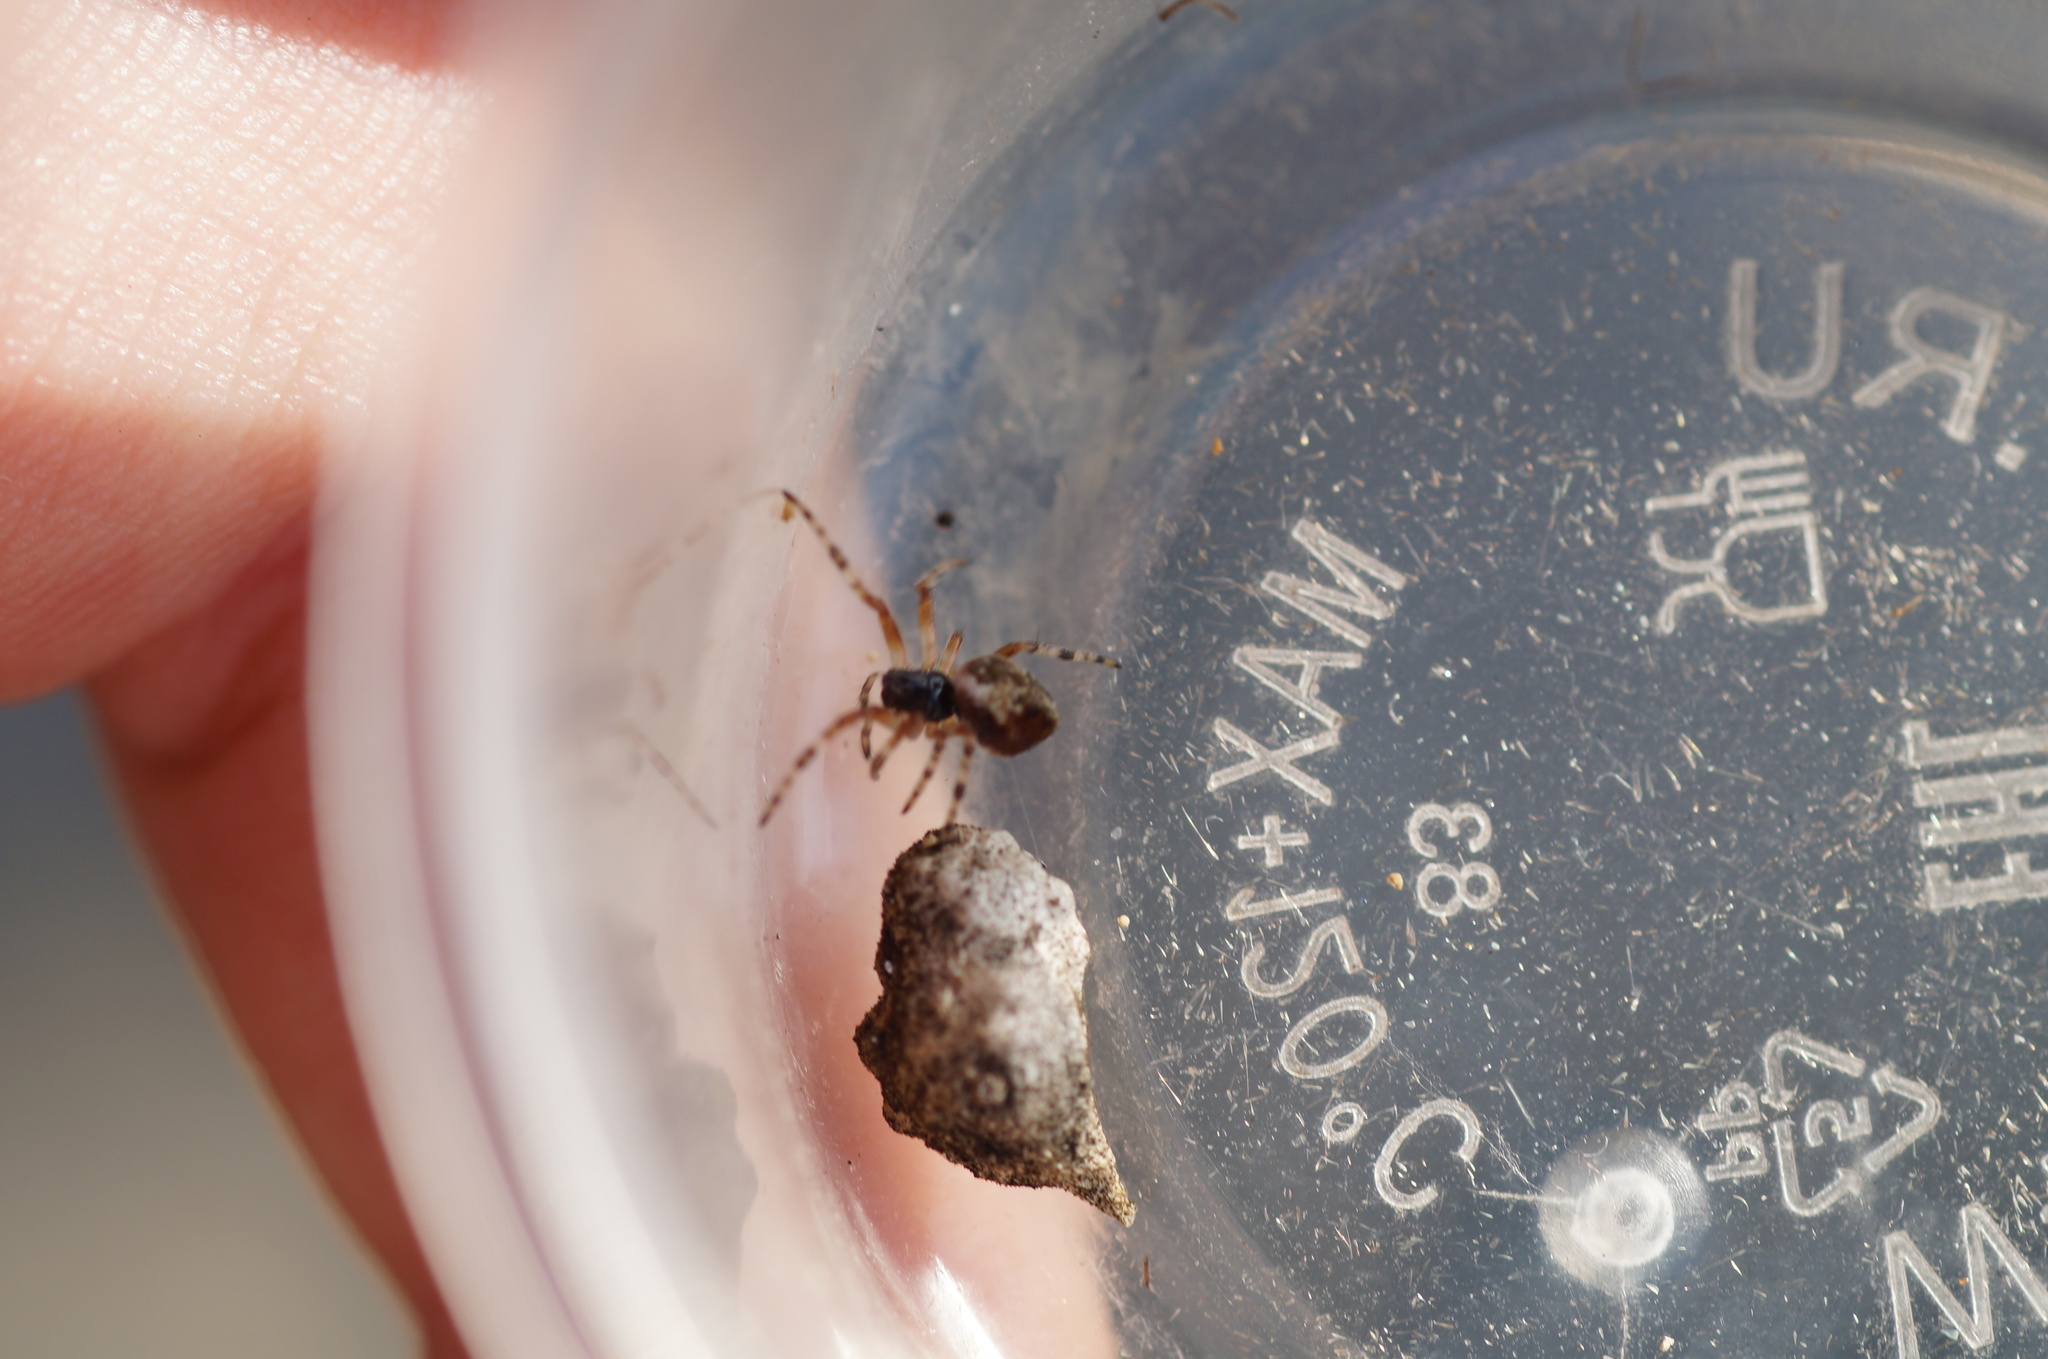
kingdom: Animalia
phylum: Arthropoda
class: Arachnida
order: Araneae
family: Araneidae
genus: Cyclosa
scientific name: Cyclosa conica
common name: Conical trashline orbweaver
